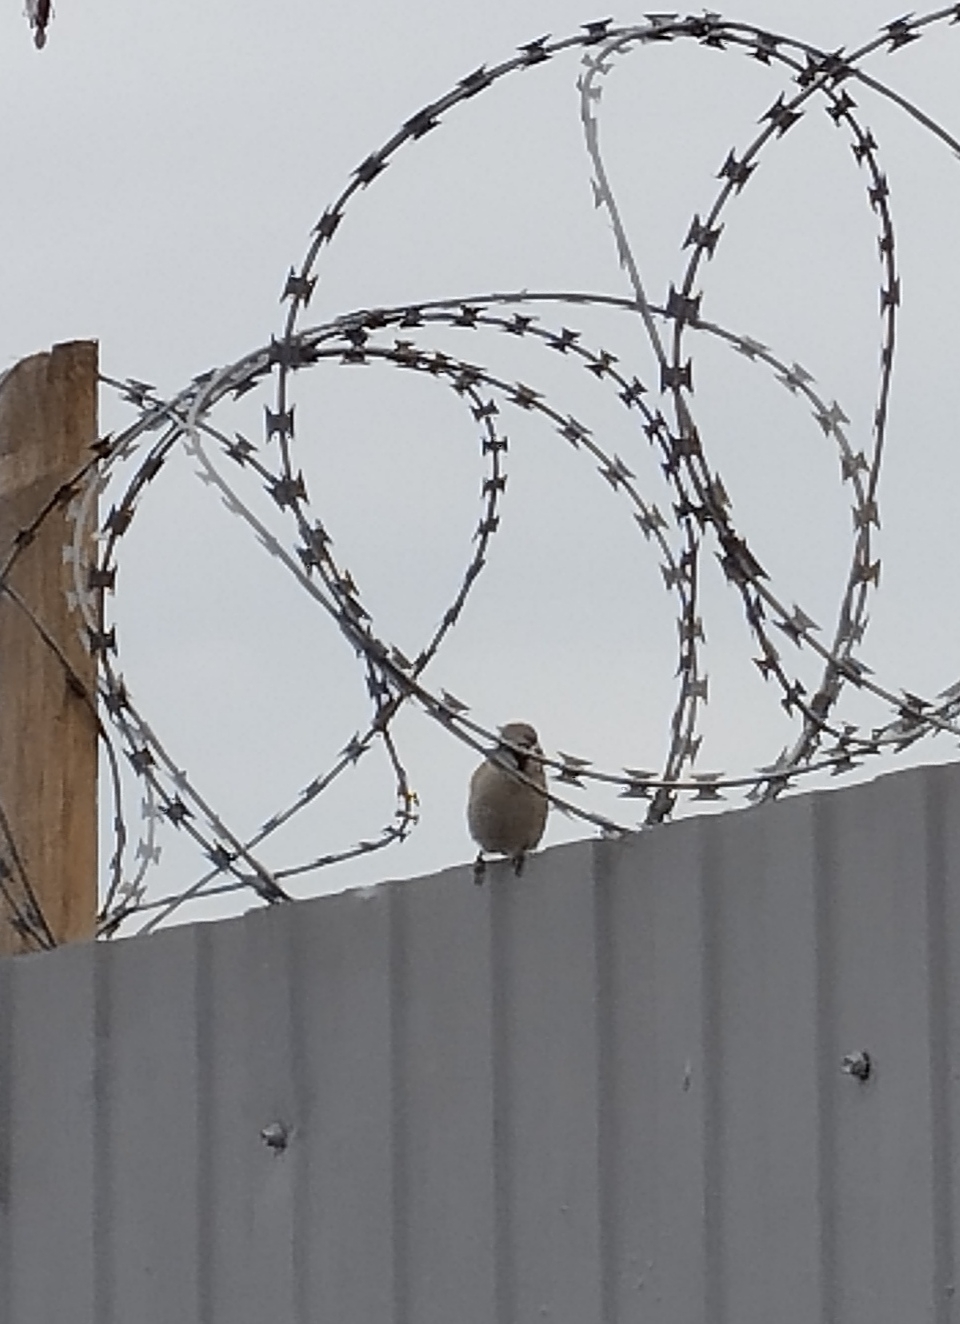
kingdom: Animalia
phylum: Chordata
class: Aves
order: Passeriformes
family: Passeridae
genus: Passer
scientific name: Passer montanus
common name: Eurasian tree sparrow
